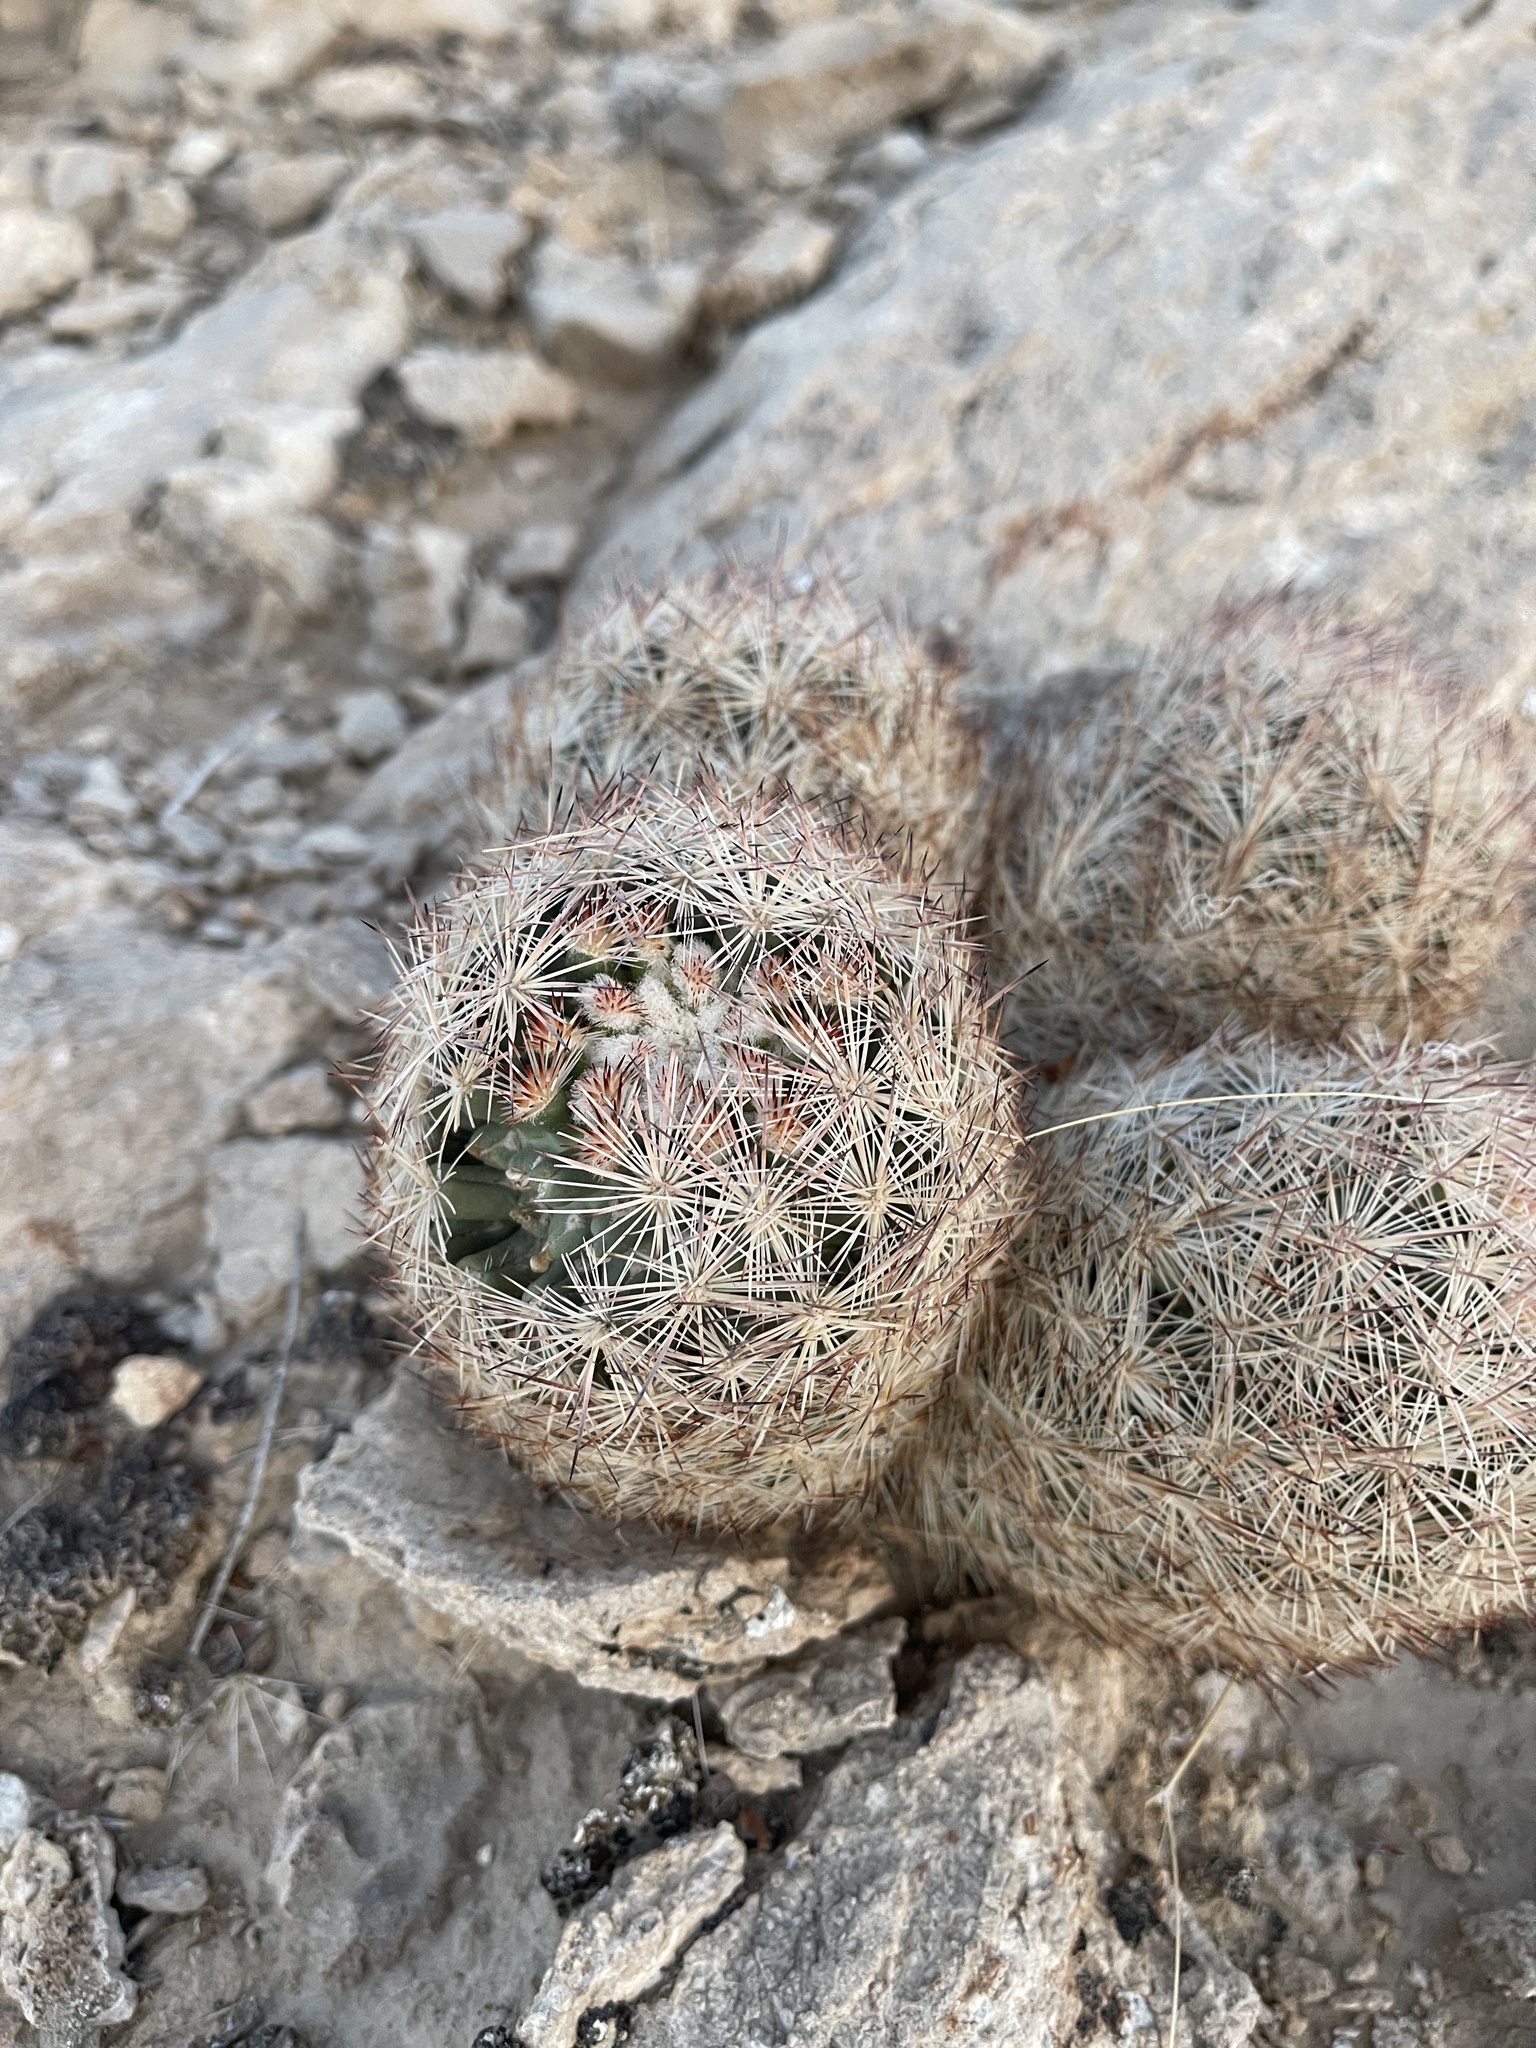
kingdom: Plantae
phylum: Tracheophyta
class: Magnoliopsida
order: Caryophyllales
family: Cactaceae
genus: Pelecyphora
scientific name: Pelecyphora dasyacantha
